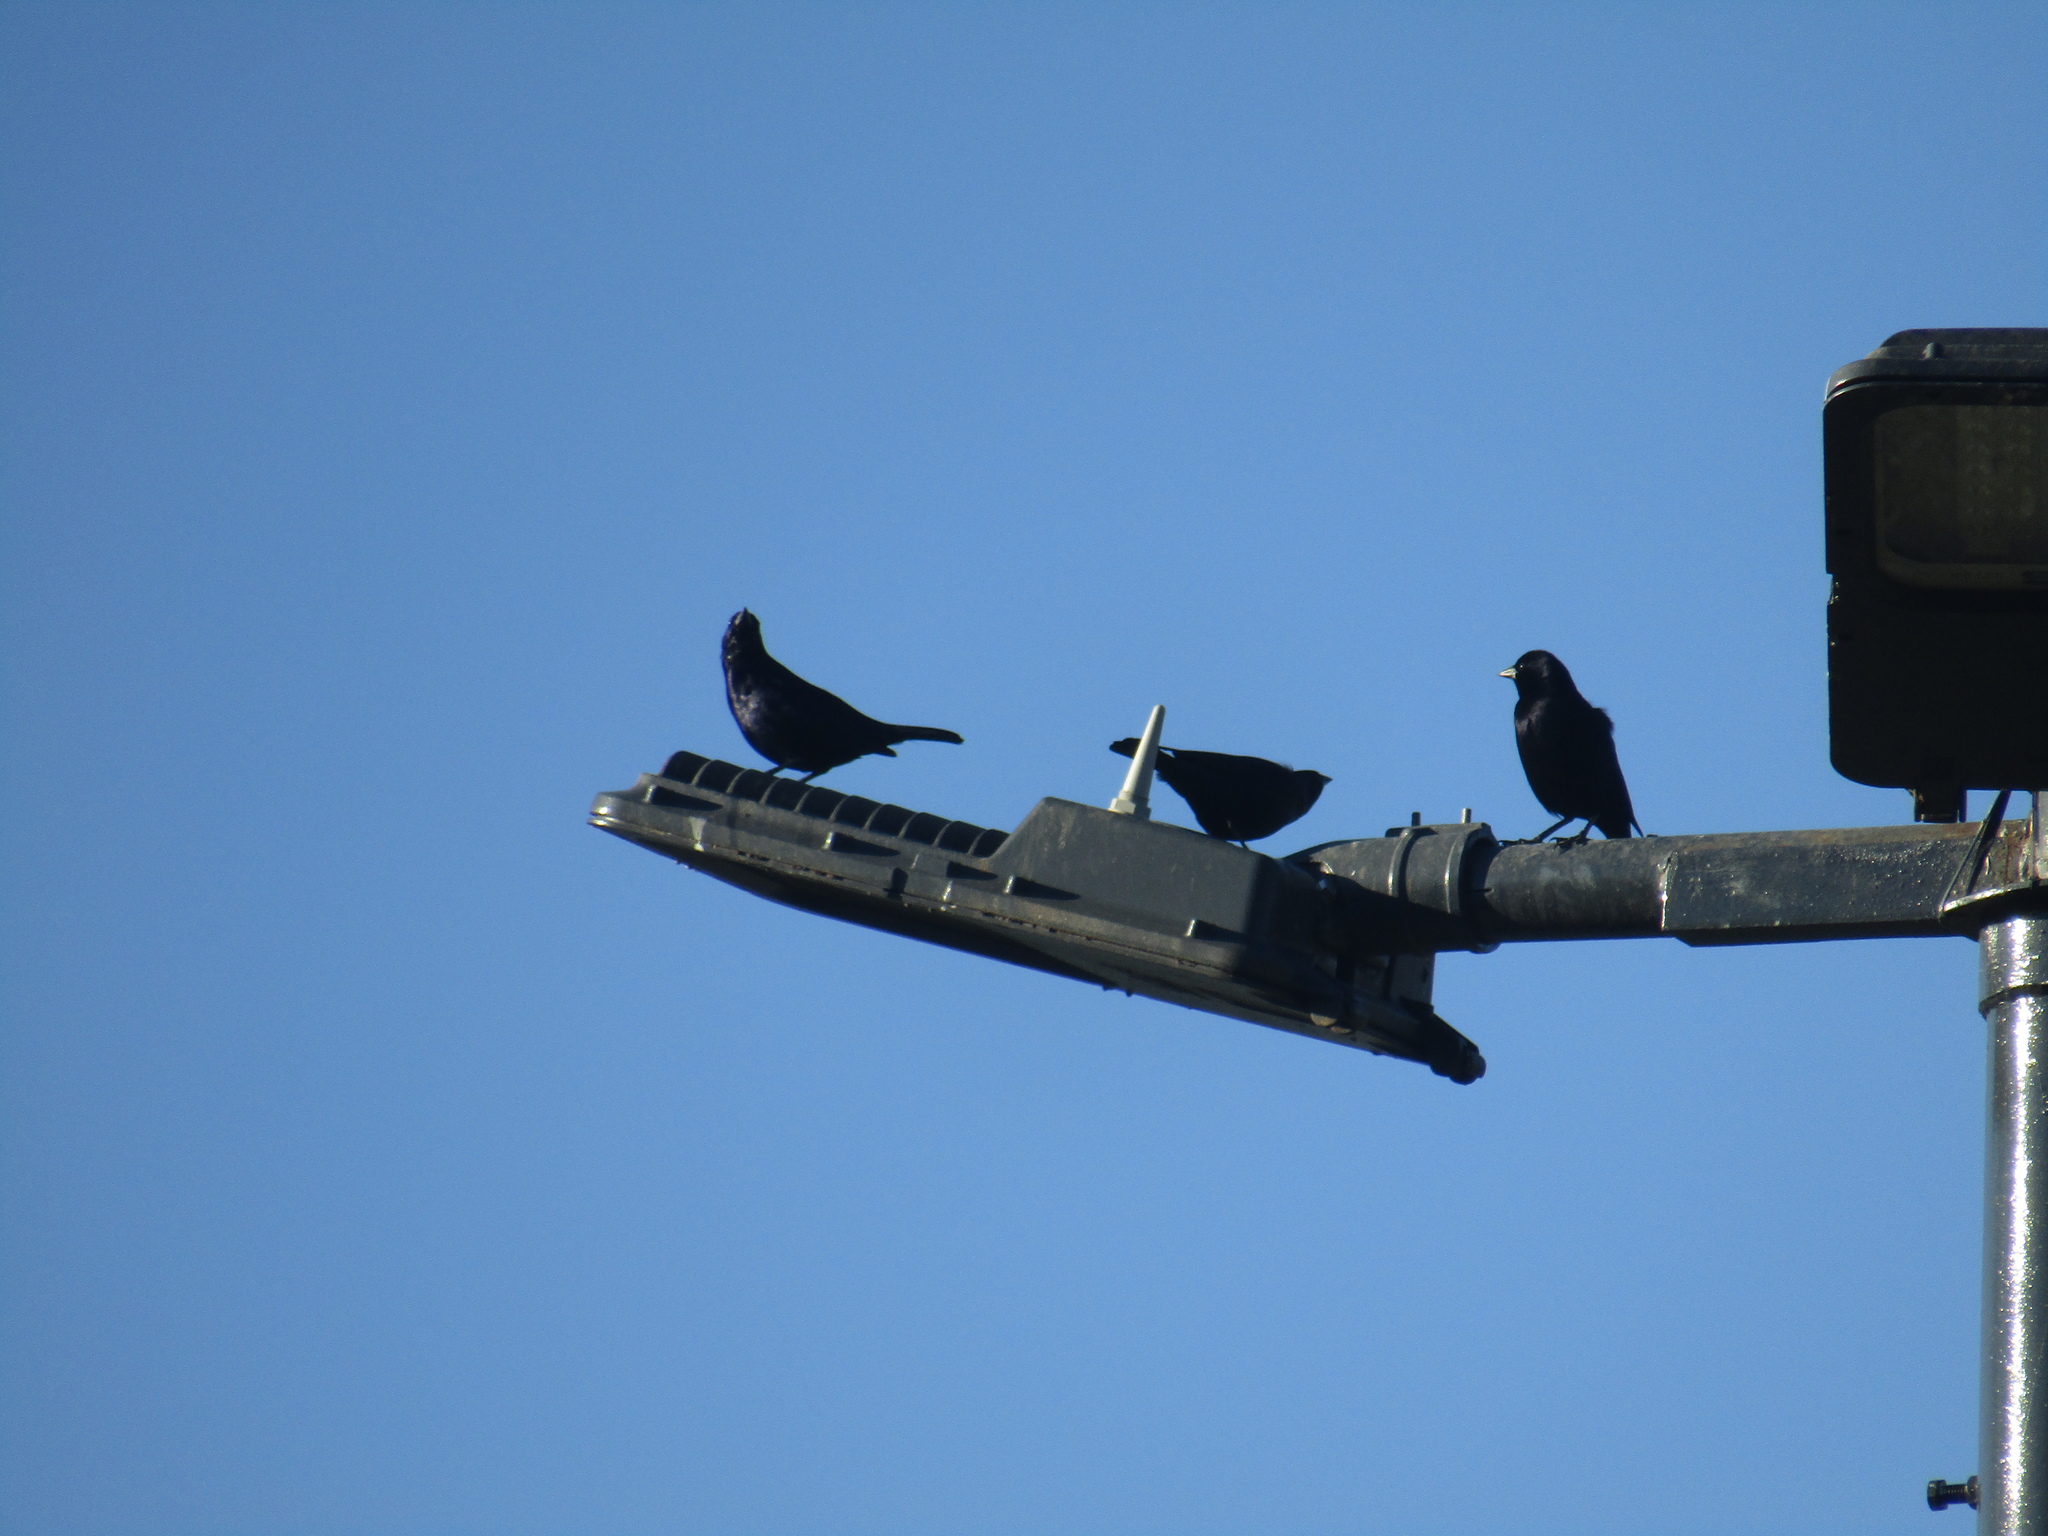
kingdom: Animalia
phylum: Chordata
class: Aves
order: Passeriformes
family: Icteridae
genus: Molothrus
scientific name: Molothrus bonariensis
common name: Shiny cowbird
